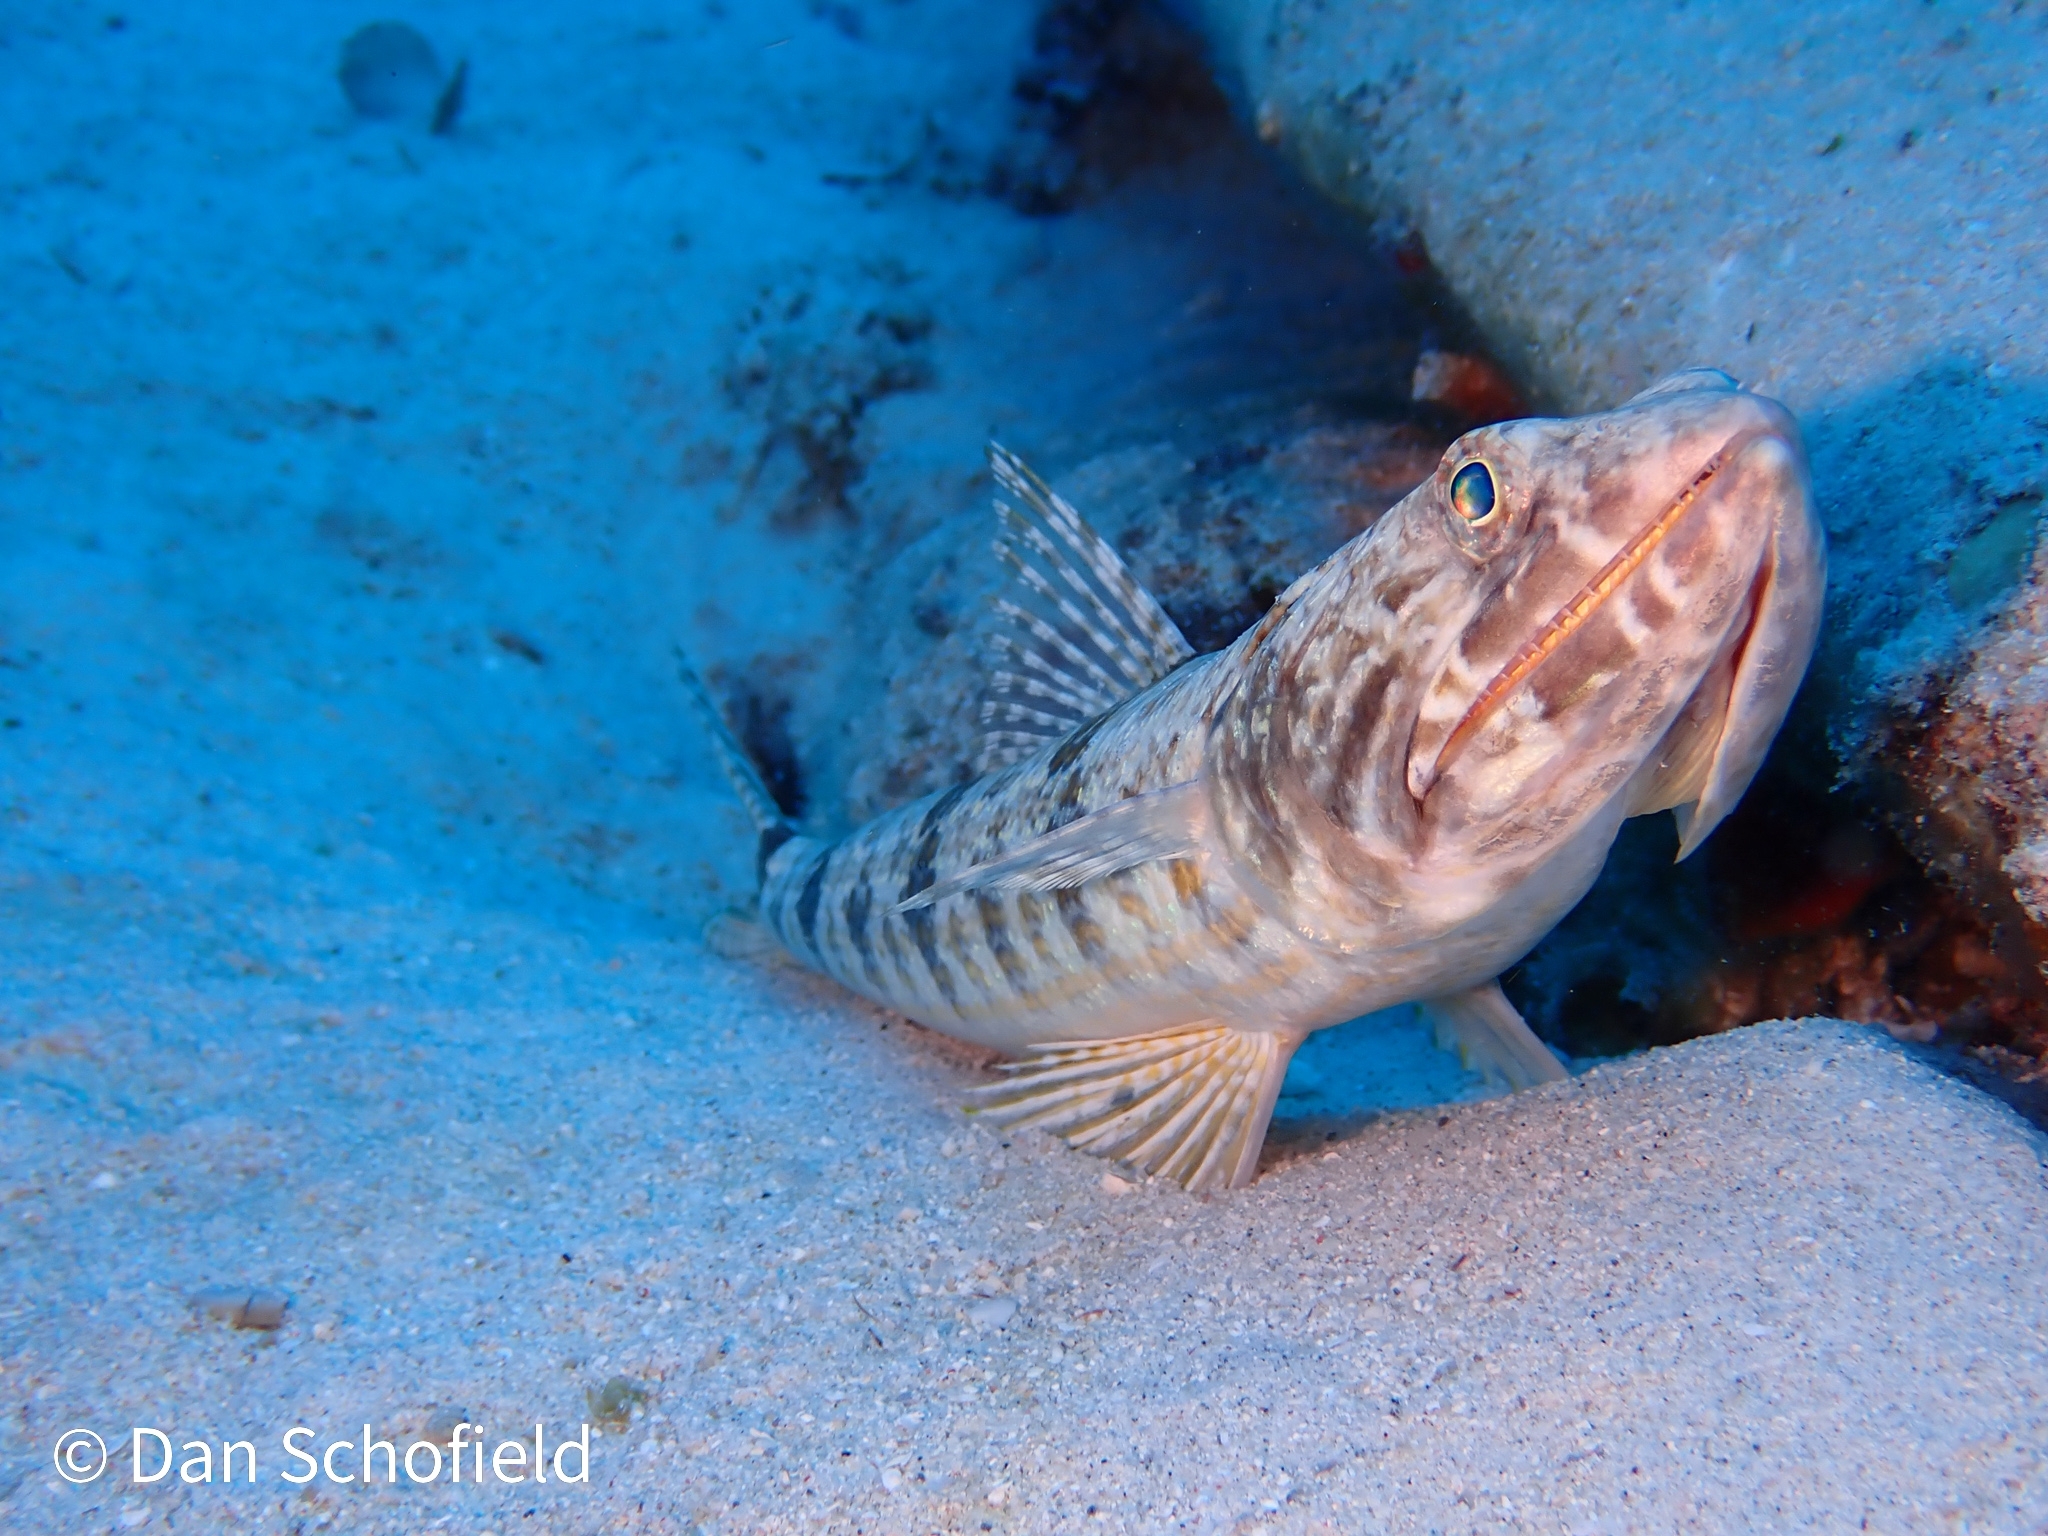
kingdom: Animalia
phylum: Chordata
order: Aulopiformes
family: Synodontidae
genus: Synodus
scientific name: Synodus intermedius
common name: Sand diver
